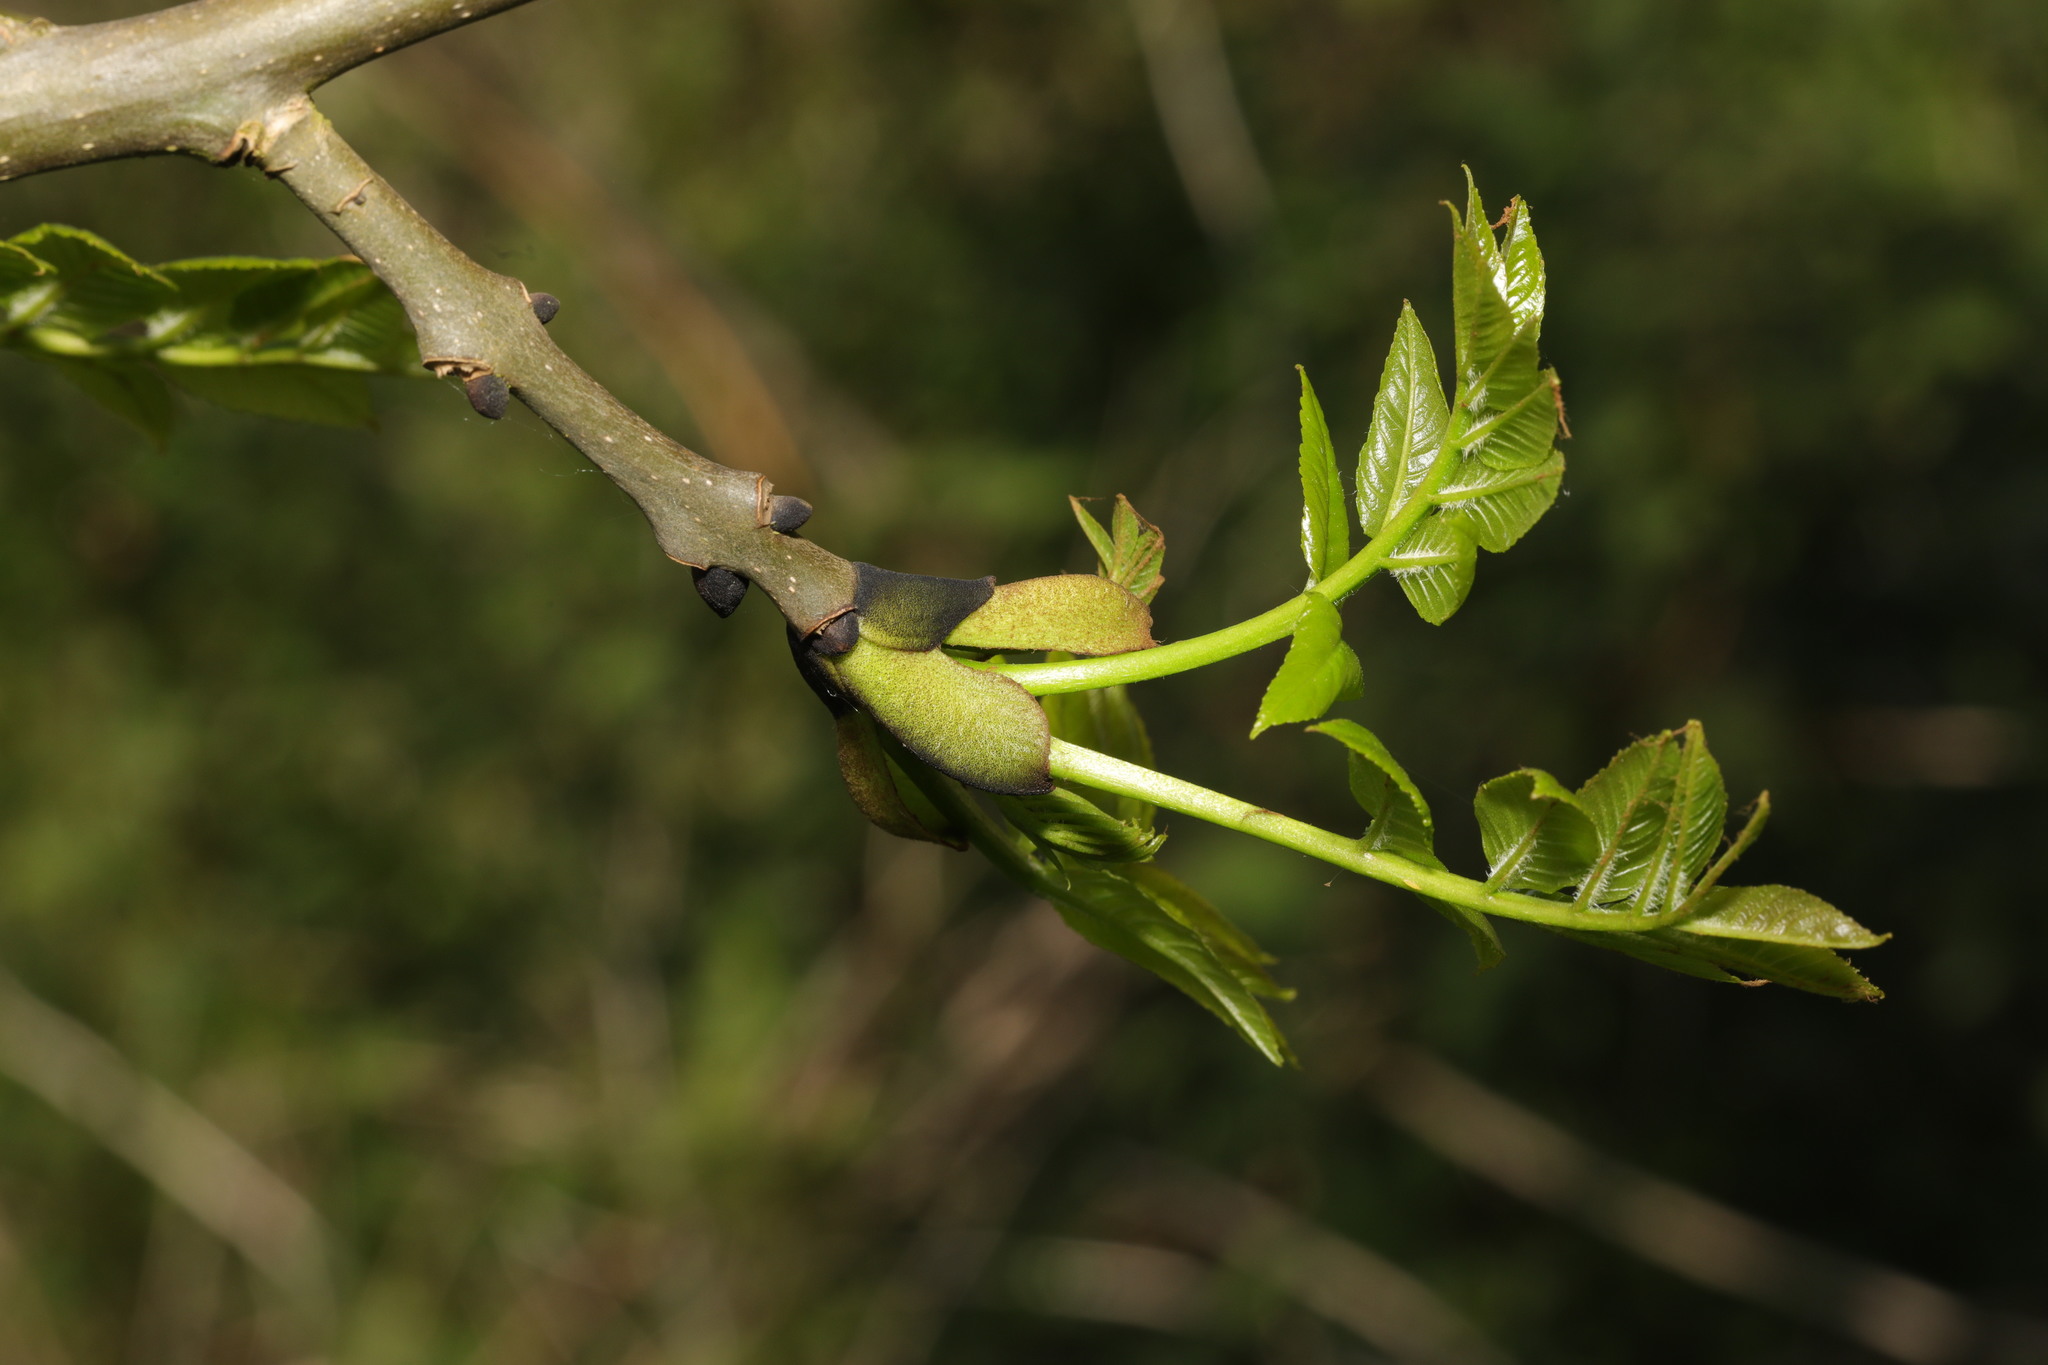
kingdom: Plantae
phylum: Tracheophyta
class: Magnoliopsida
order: Lamiales
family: Oleaceae
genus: Fraxinus
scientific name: Fraxinus excelsior
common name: European ash
